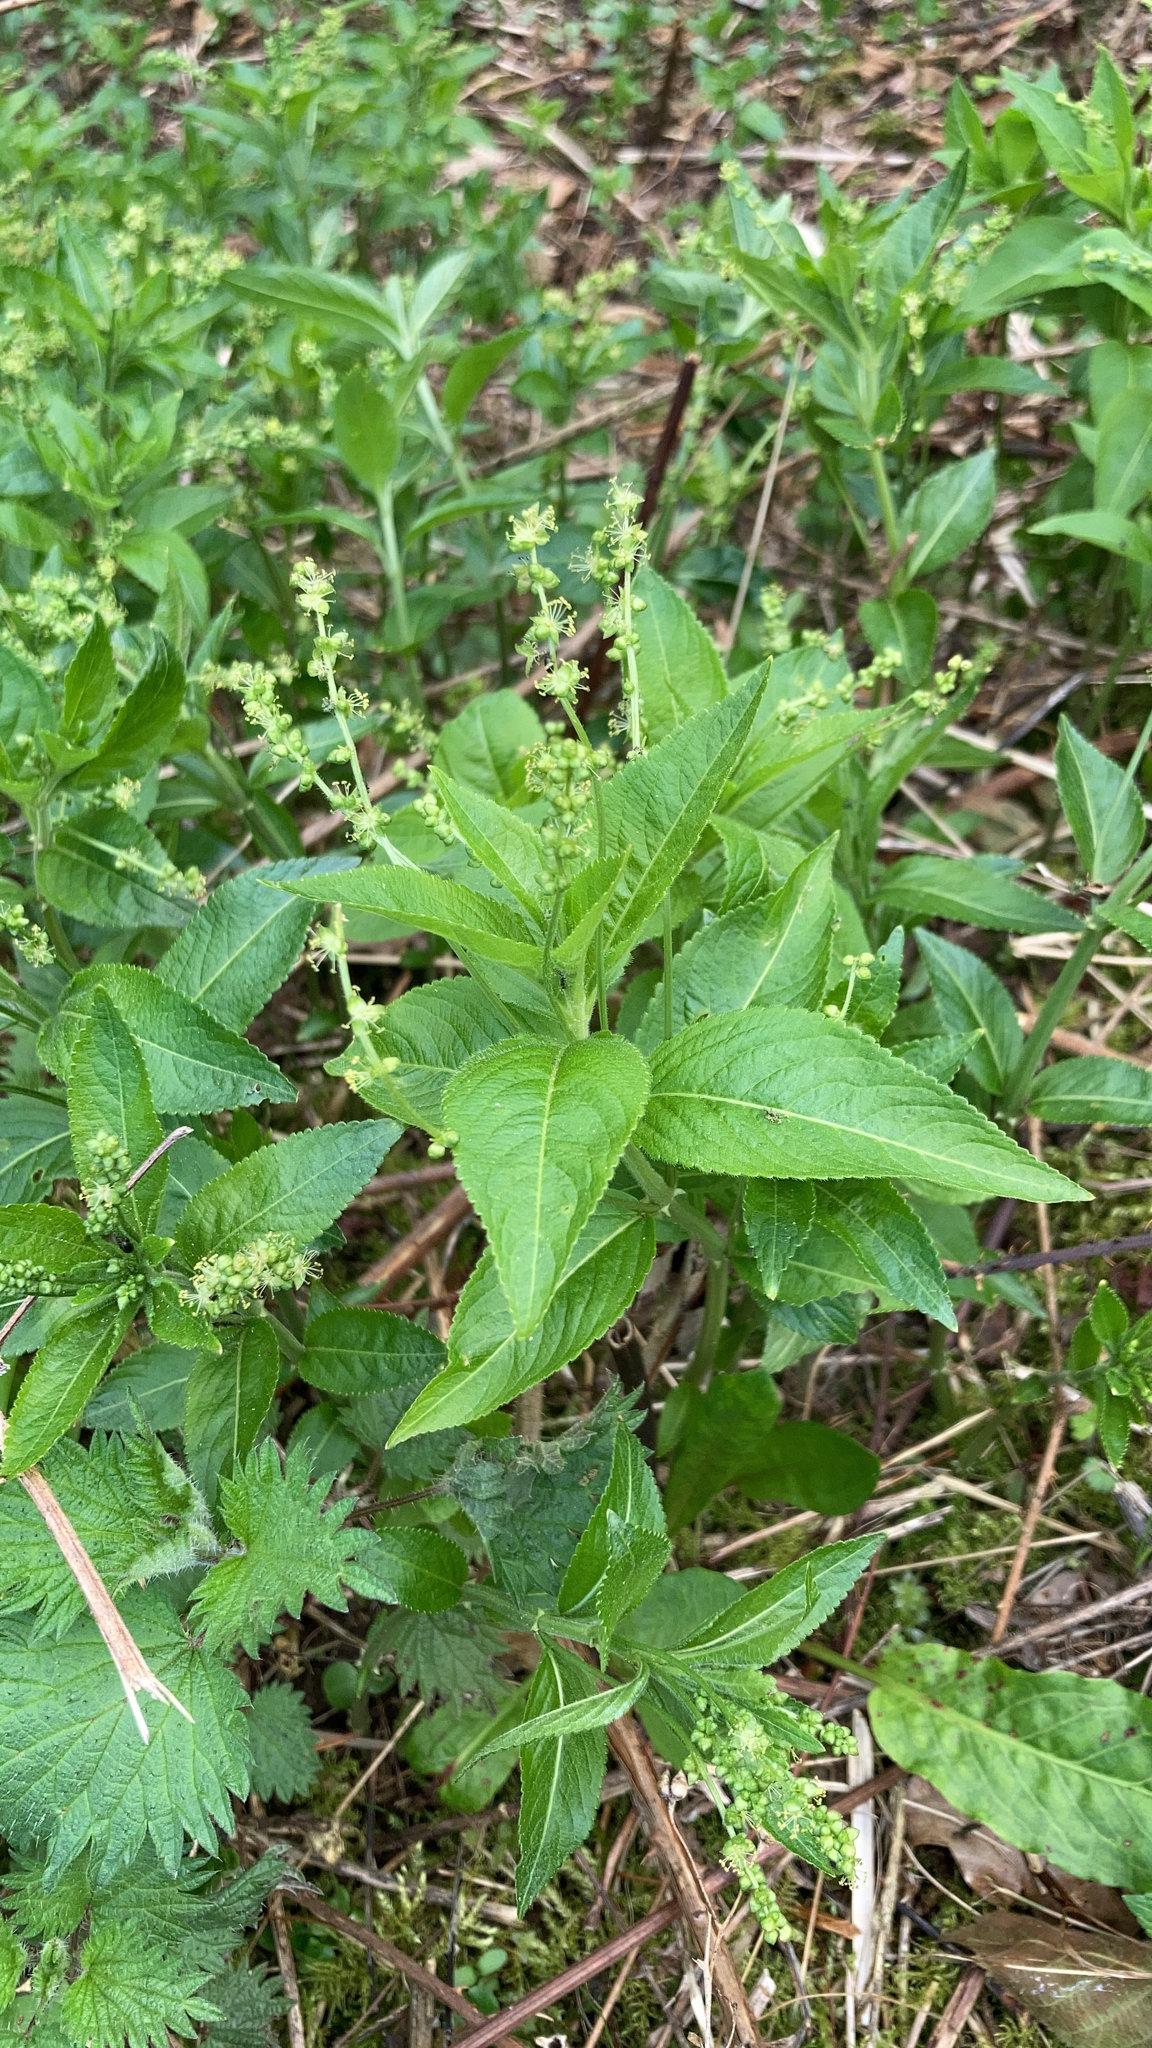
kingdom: Plantae
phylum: Tracheophyta
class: Magnoliopsida
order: Malpighiales
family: Euphorbiaceae
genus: Mercurialis
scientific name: Mercurialis perennis
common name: Dog mercury
